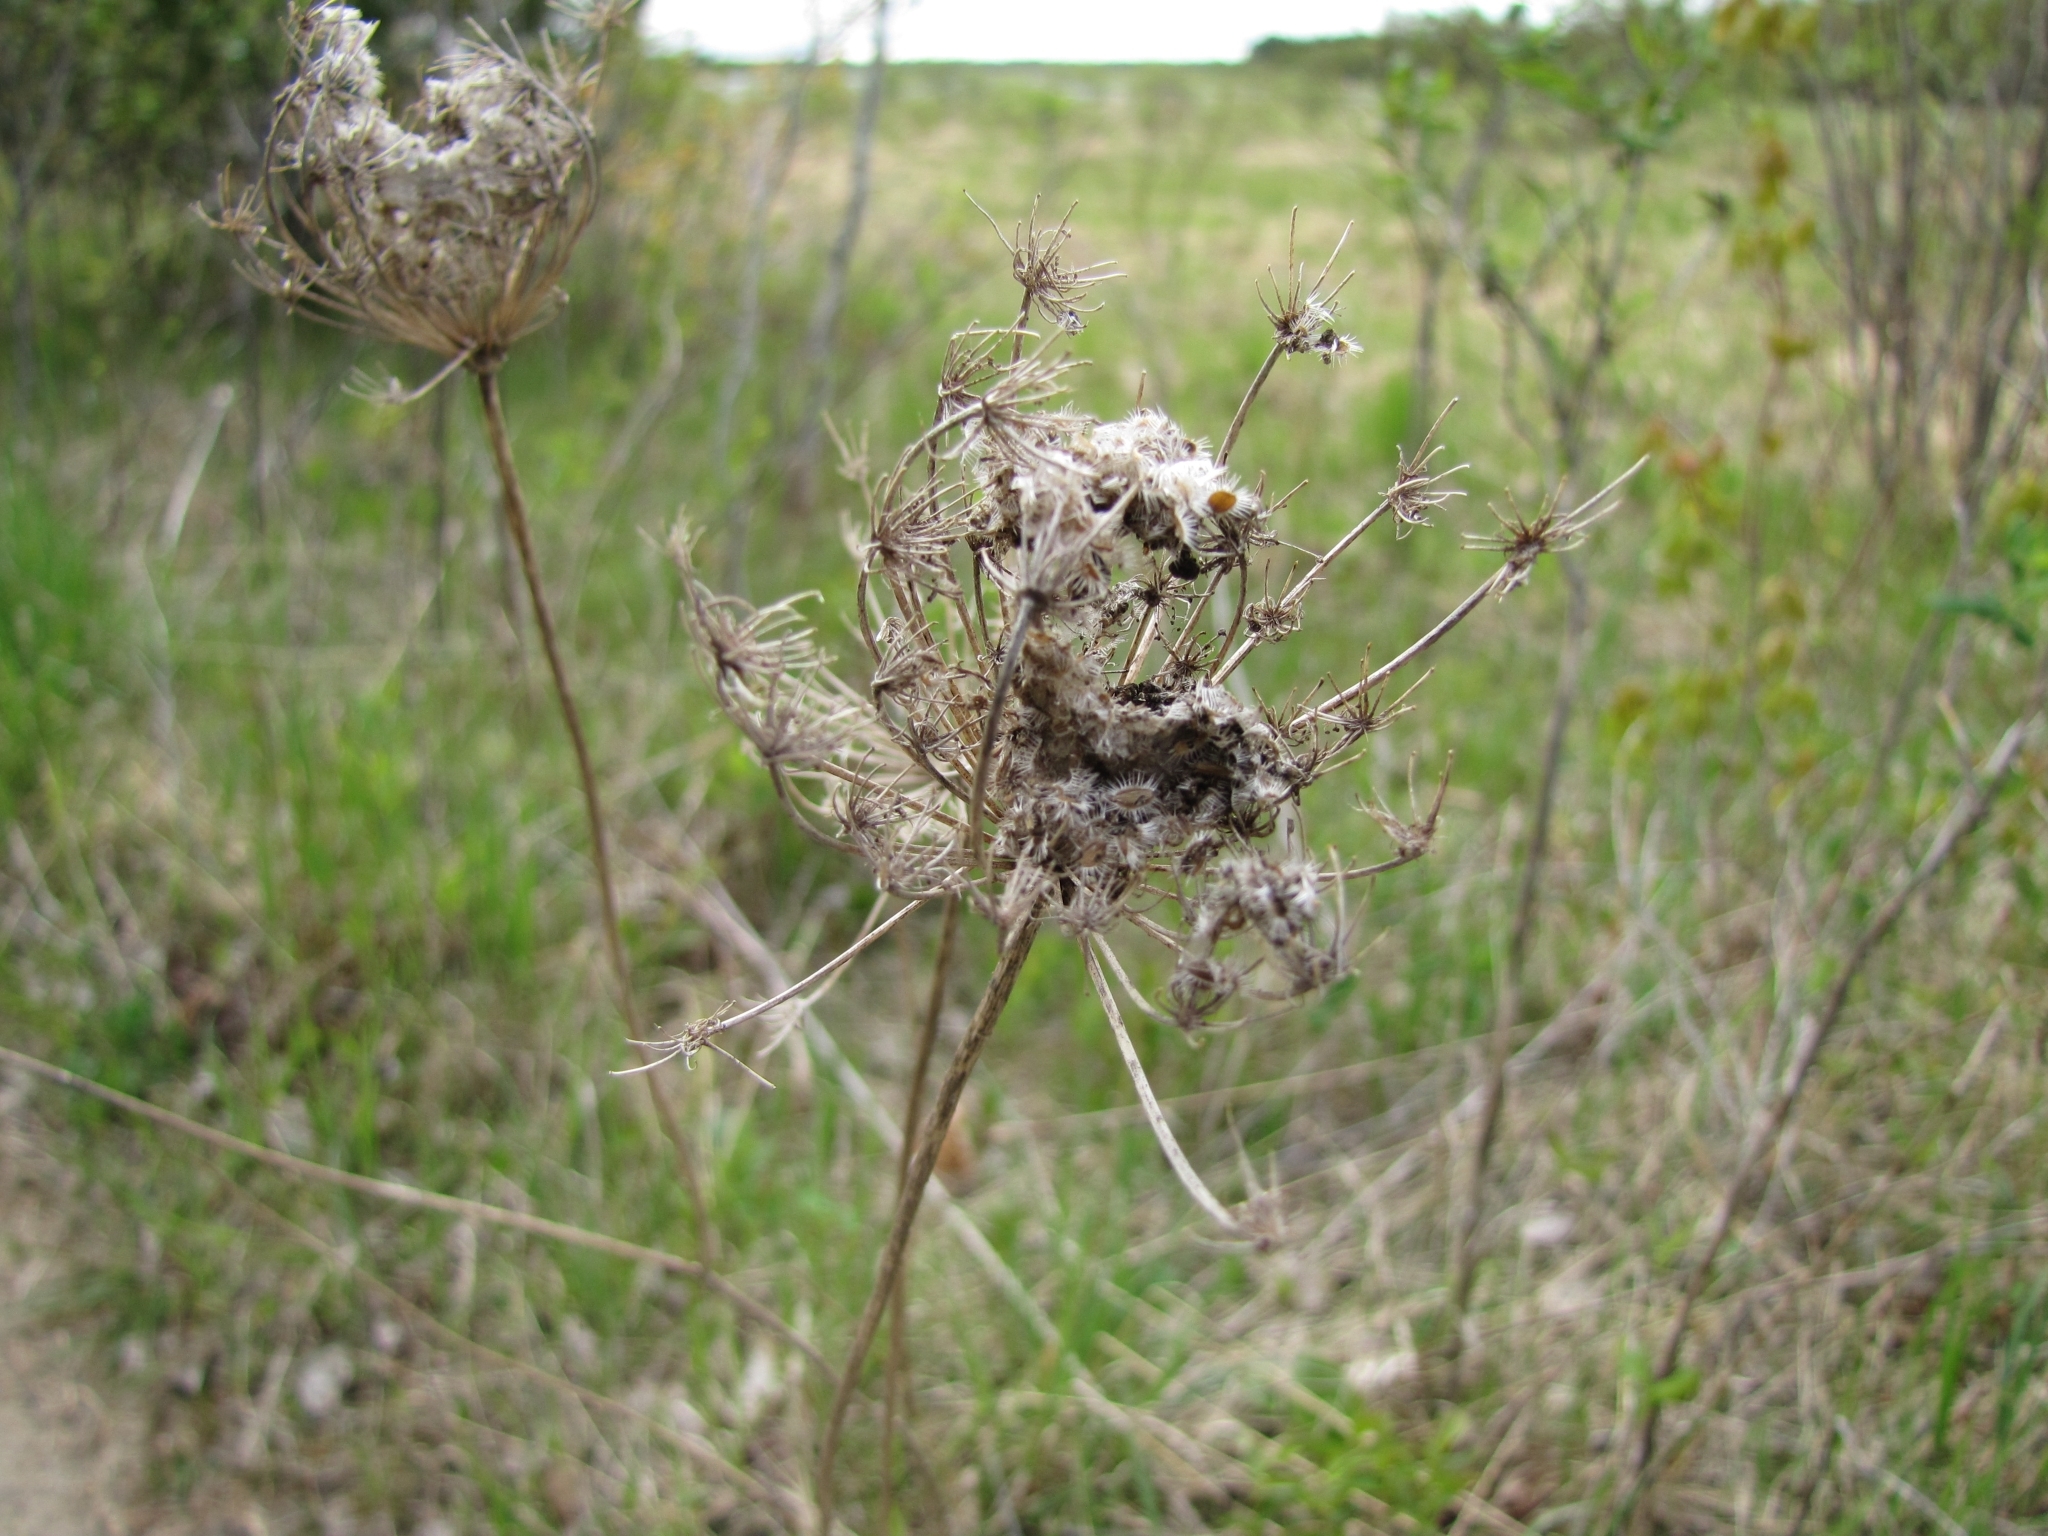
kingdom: Plantae
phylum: Tracheophyta
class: Magnoliopsida
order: Apiales
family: Apiaceae
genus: Daucus
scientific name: Daucus carota
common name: Wild carrot
